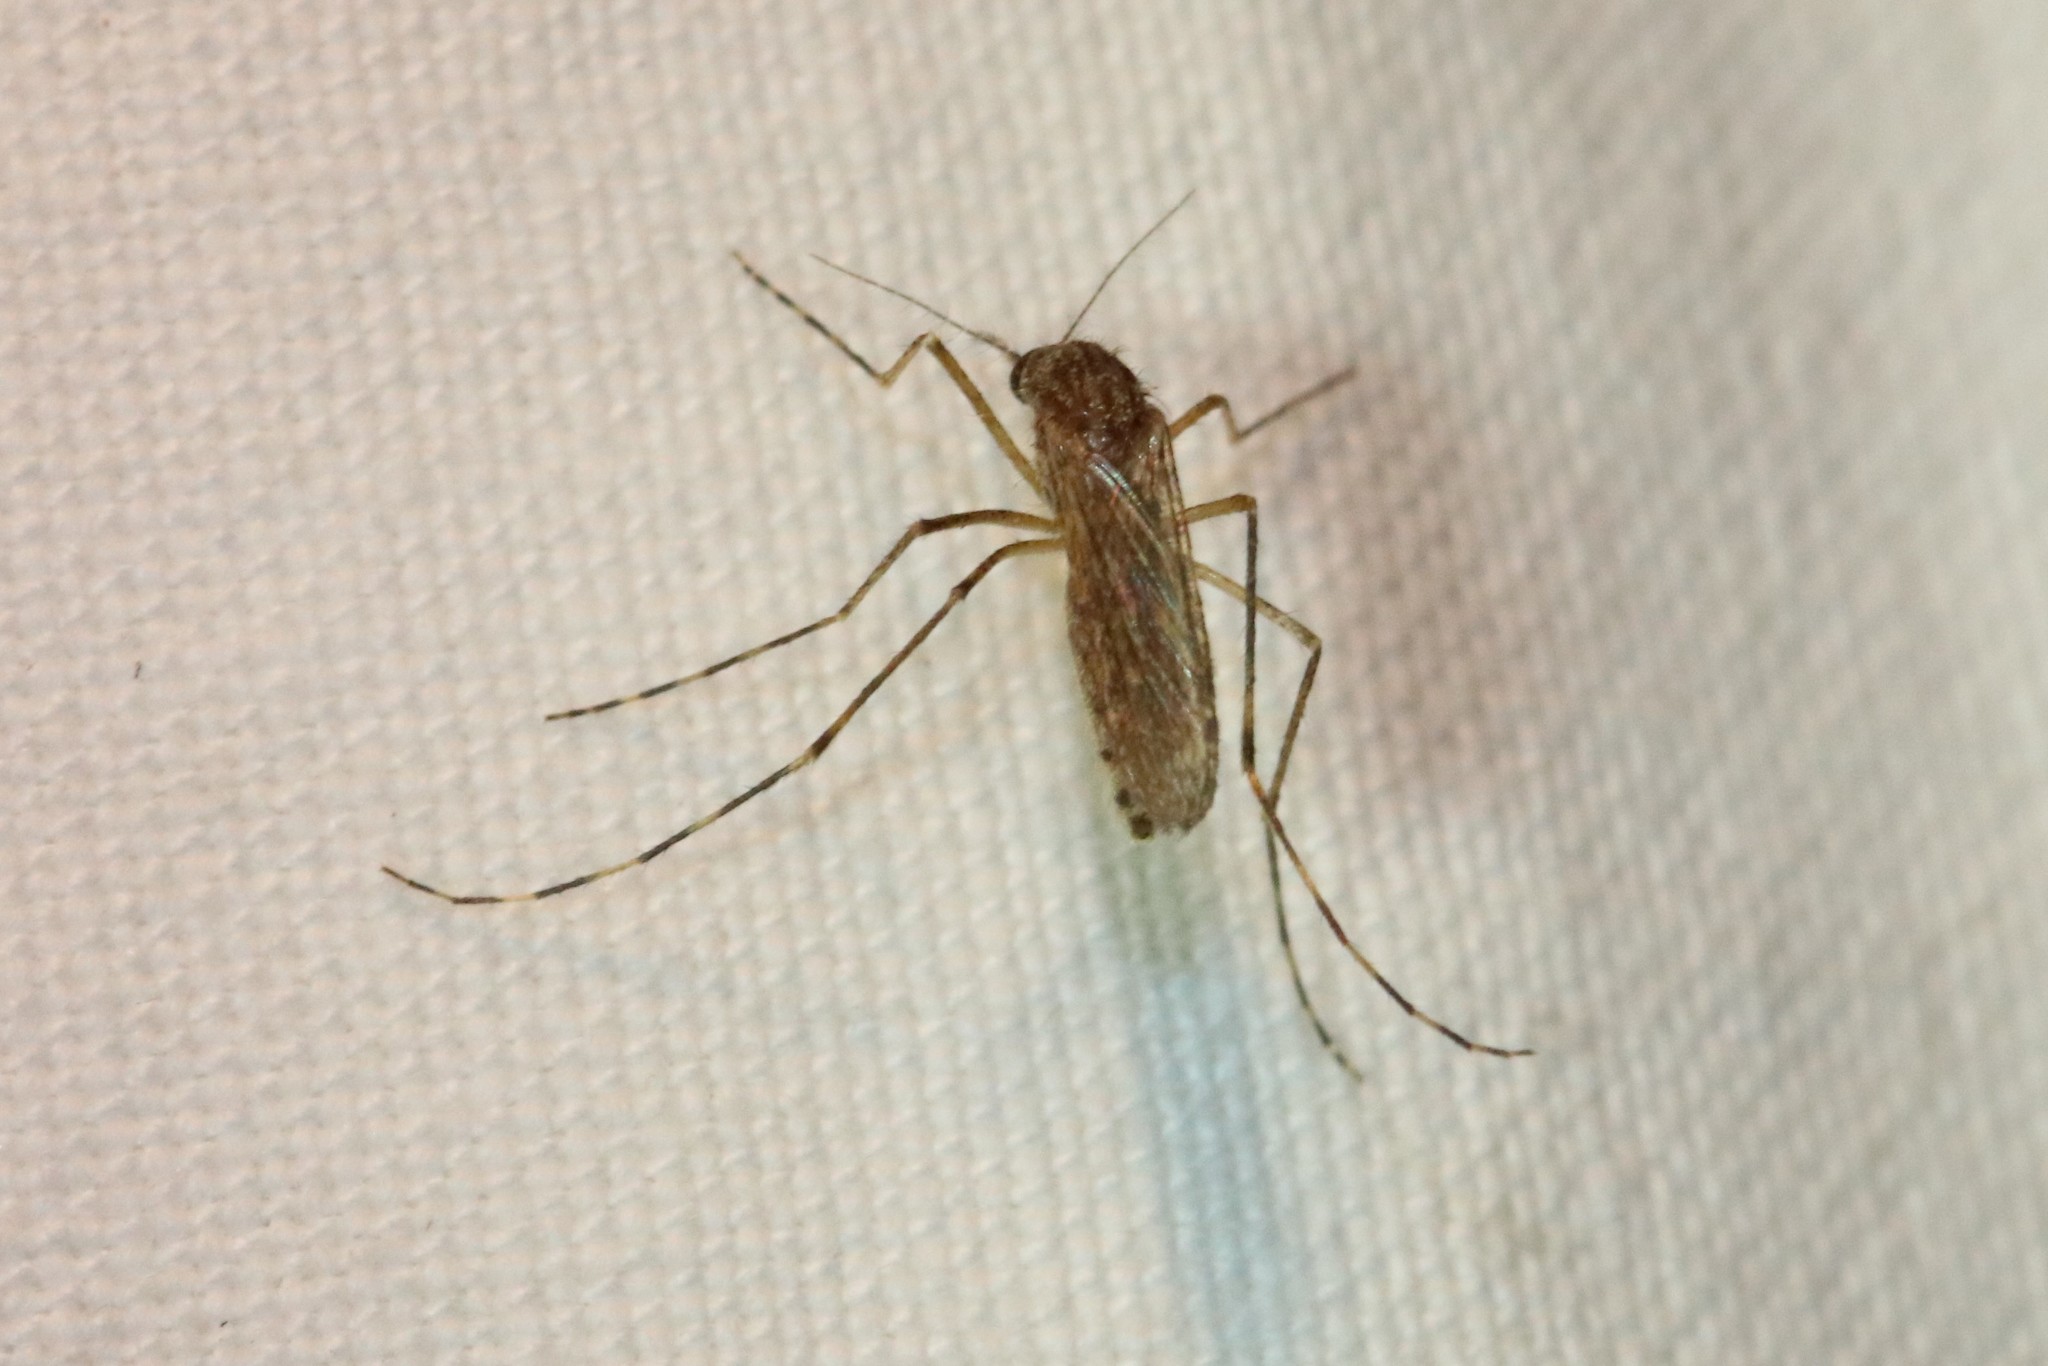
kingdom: Animalia
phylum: Arthropoda
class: Insecta
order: Diptera
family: Culicidae
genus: Coquillettidia
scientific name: Coquillettidia perturbans
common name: Cattail mosquito
